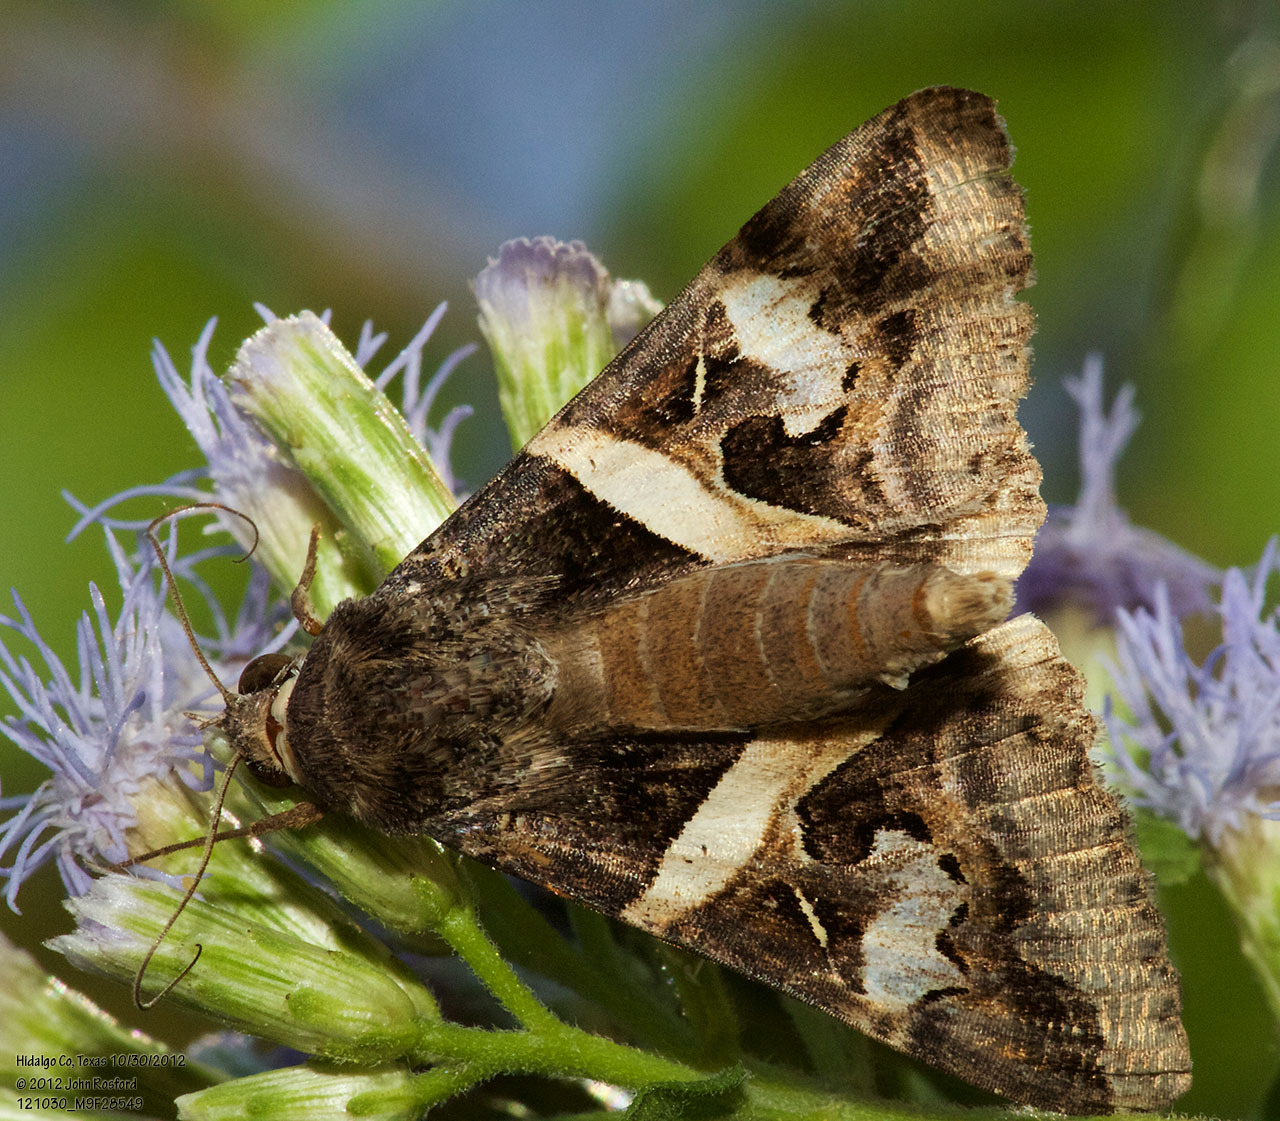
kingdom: Animalia
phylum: Arthropoda
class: Insecta
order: Lepidoptera
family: Erebidae
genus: Melipotis
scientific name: Melipotis indomita
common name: Moth
